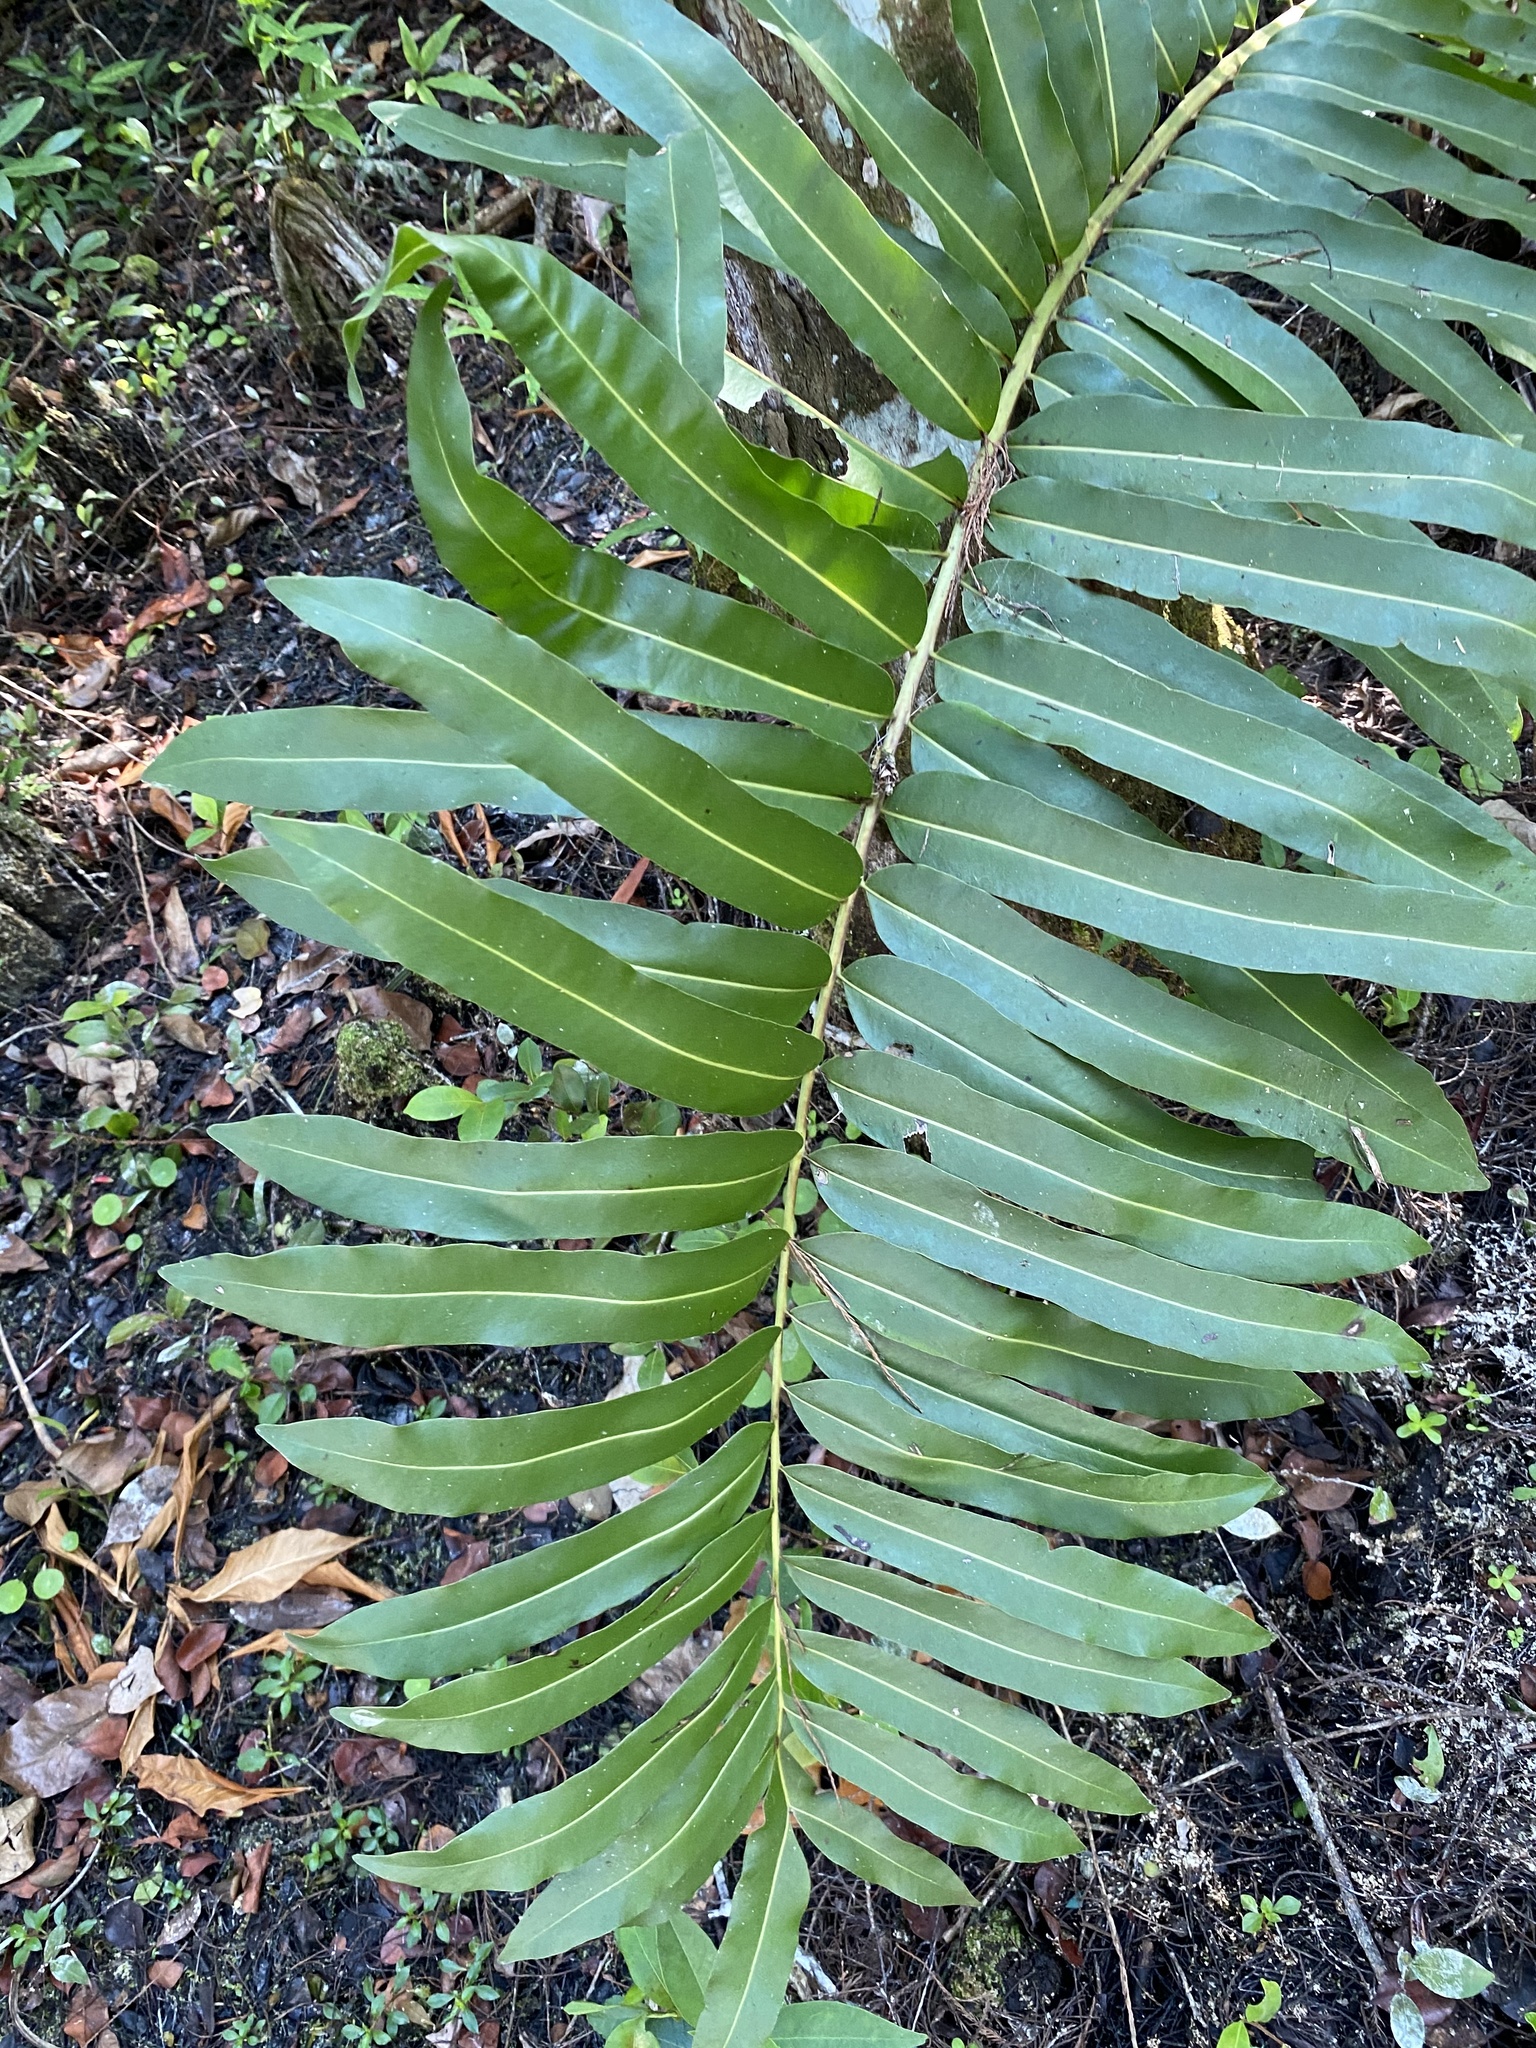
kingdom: Plantae
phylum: Tracheophyta
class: Polypodiopsida
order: Polypodiales
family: Pteridaceae
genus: Acrostichum
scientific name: Acrostichum danaeifolium
